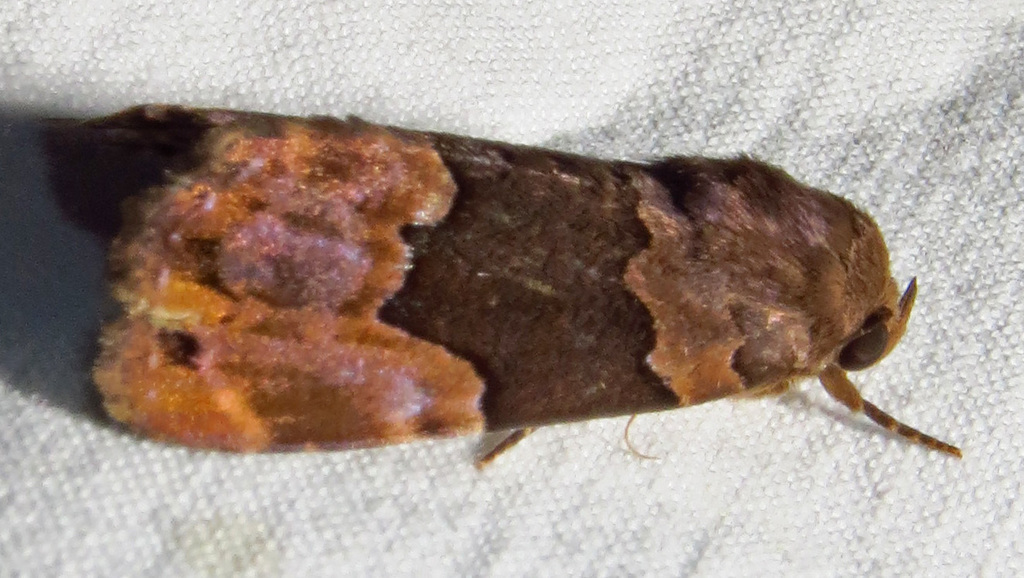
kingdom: Animalia
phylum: Arthropoda
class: Insecta
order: Lepidoptera
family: Erebidae
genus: Dinumma
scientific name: Dinumma deponens
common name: Purplish moth
